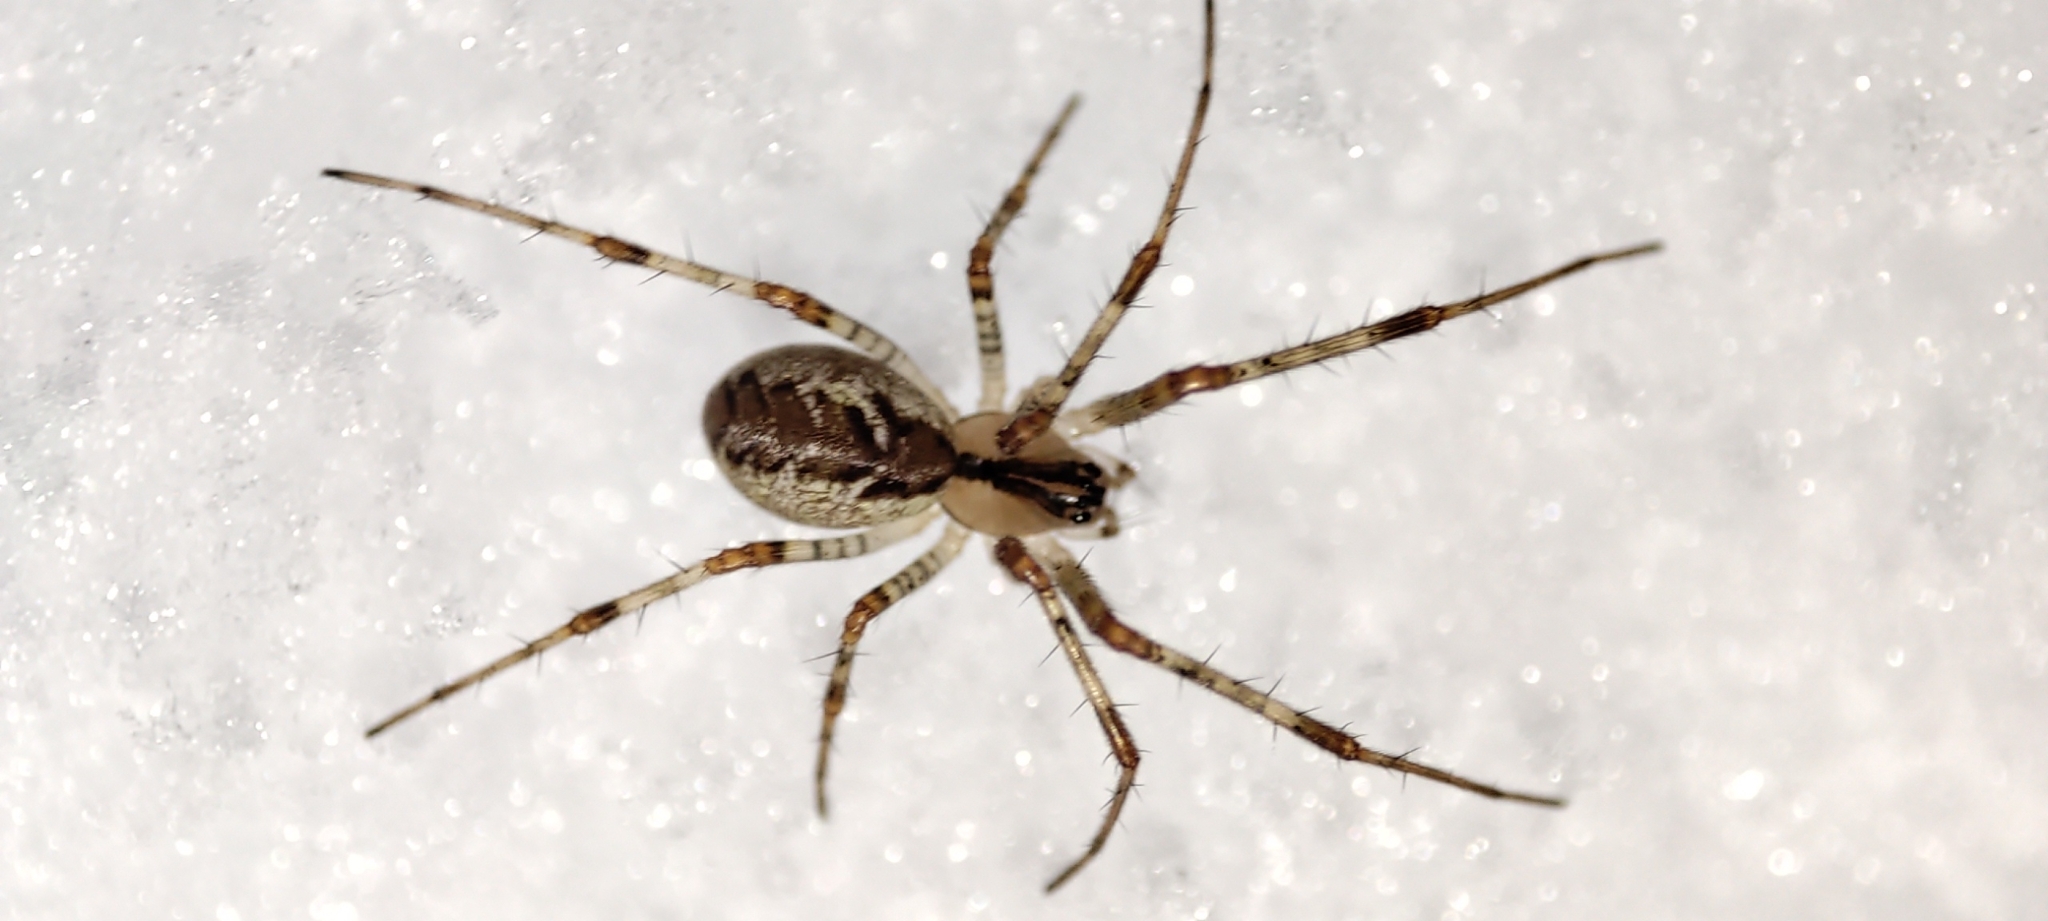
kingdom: Animalia
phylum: Arthropoda
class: Arachnida
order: Araneae
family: Linyphiidae
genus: Pityohyphantes
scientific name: Pityohyphantes phrygianus
